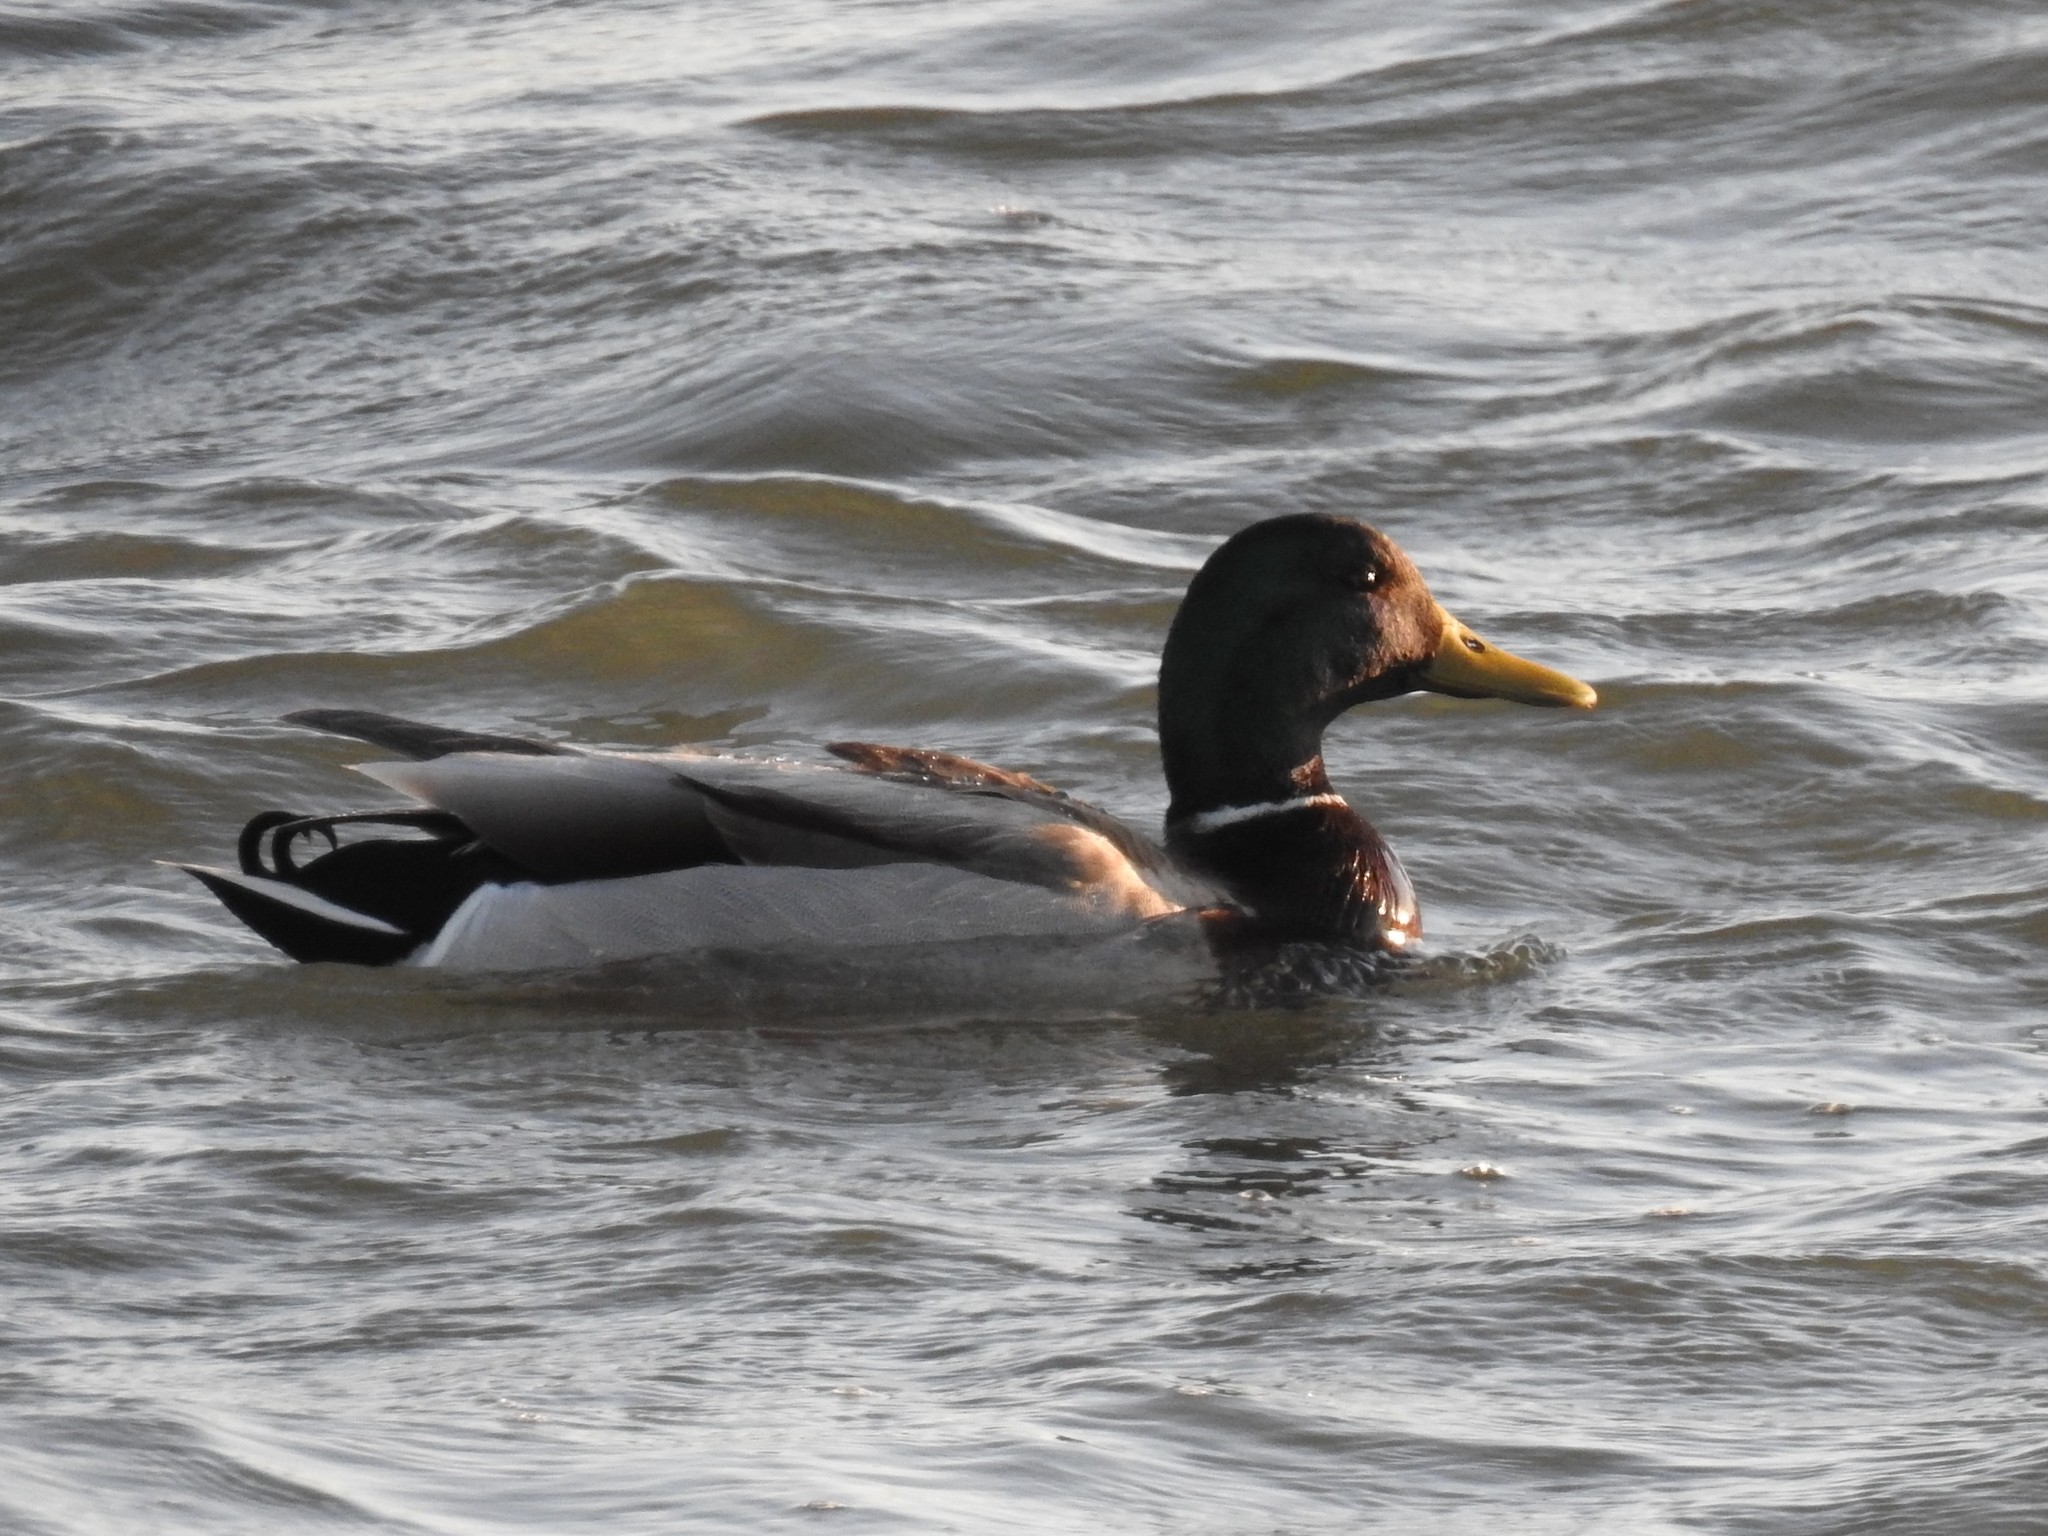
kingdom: Animalia
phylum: Chordata
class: Aves
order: Anseriformes
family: Anatidae
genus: Anas
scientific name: Anas platyrhynchos
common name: Mallard
